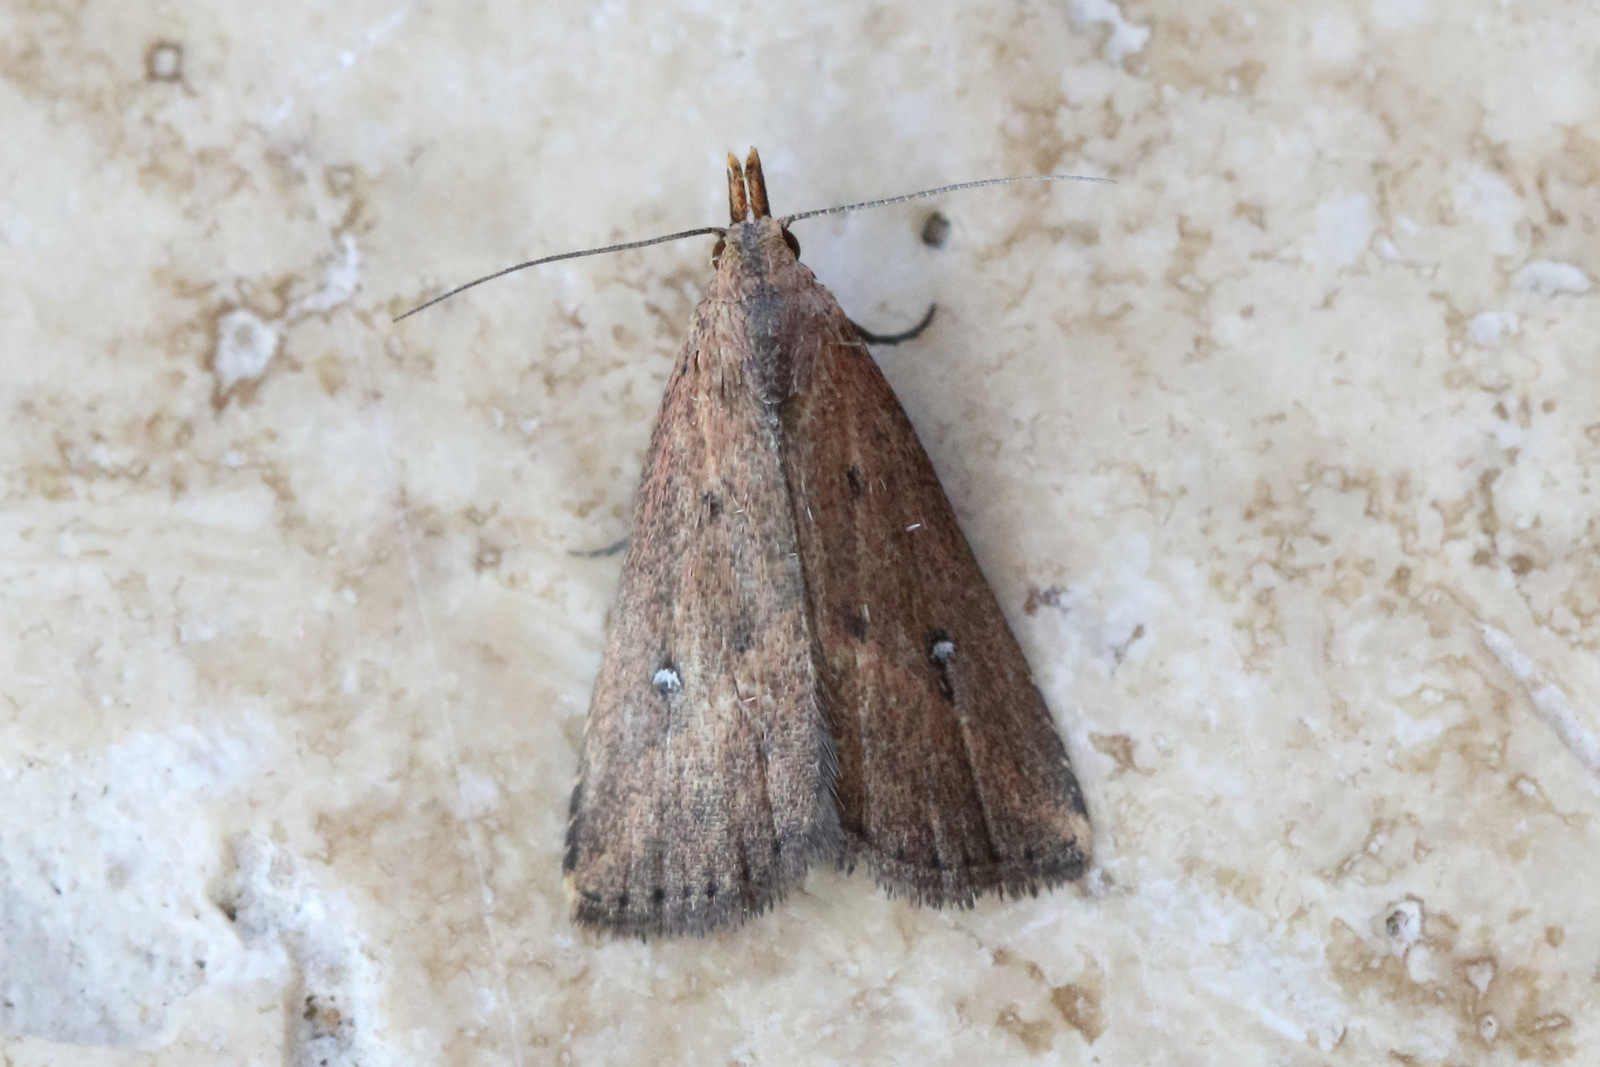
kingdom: Animalia
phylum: Arthropoda
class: Insecta
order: Lepidoptera
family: Erebidae
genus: Luceria
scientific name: Luceria oculalis
